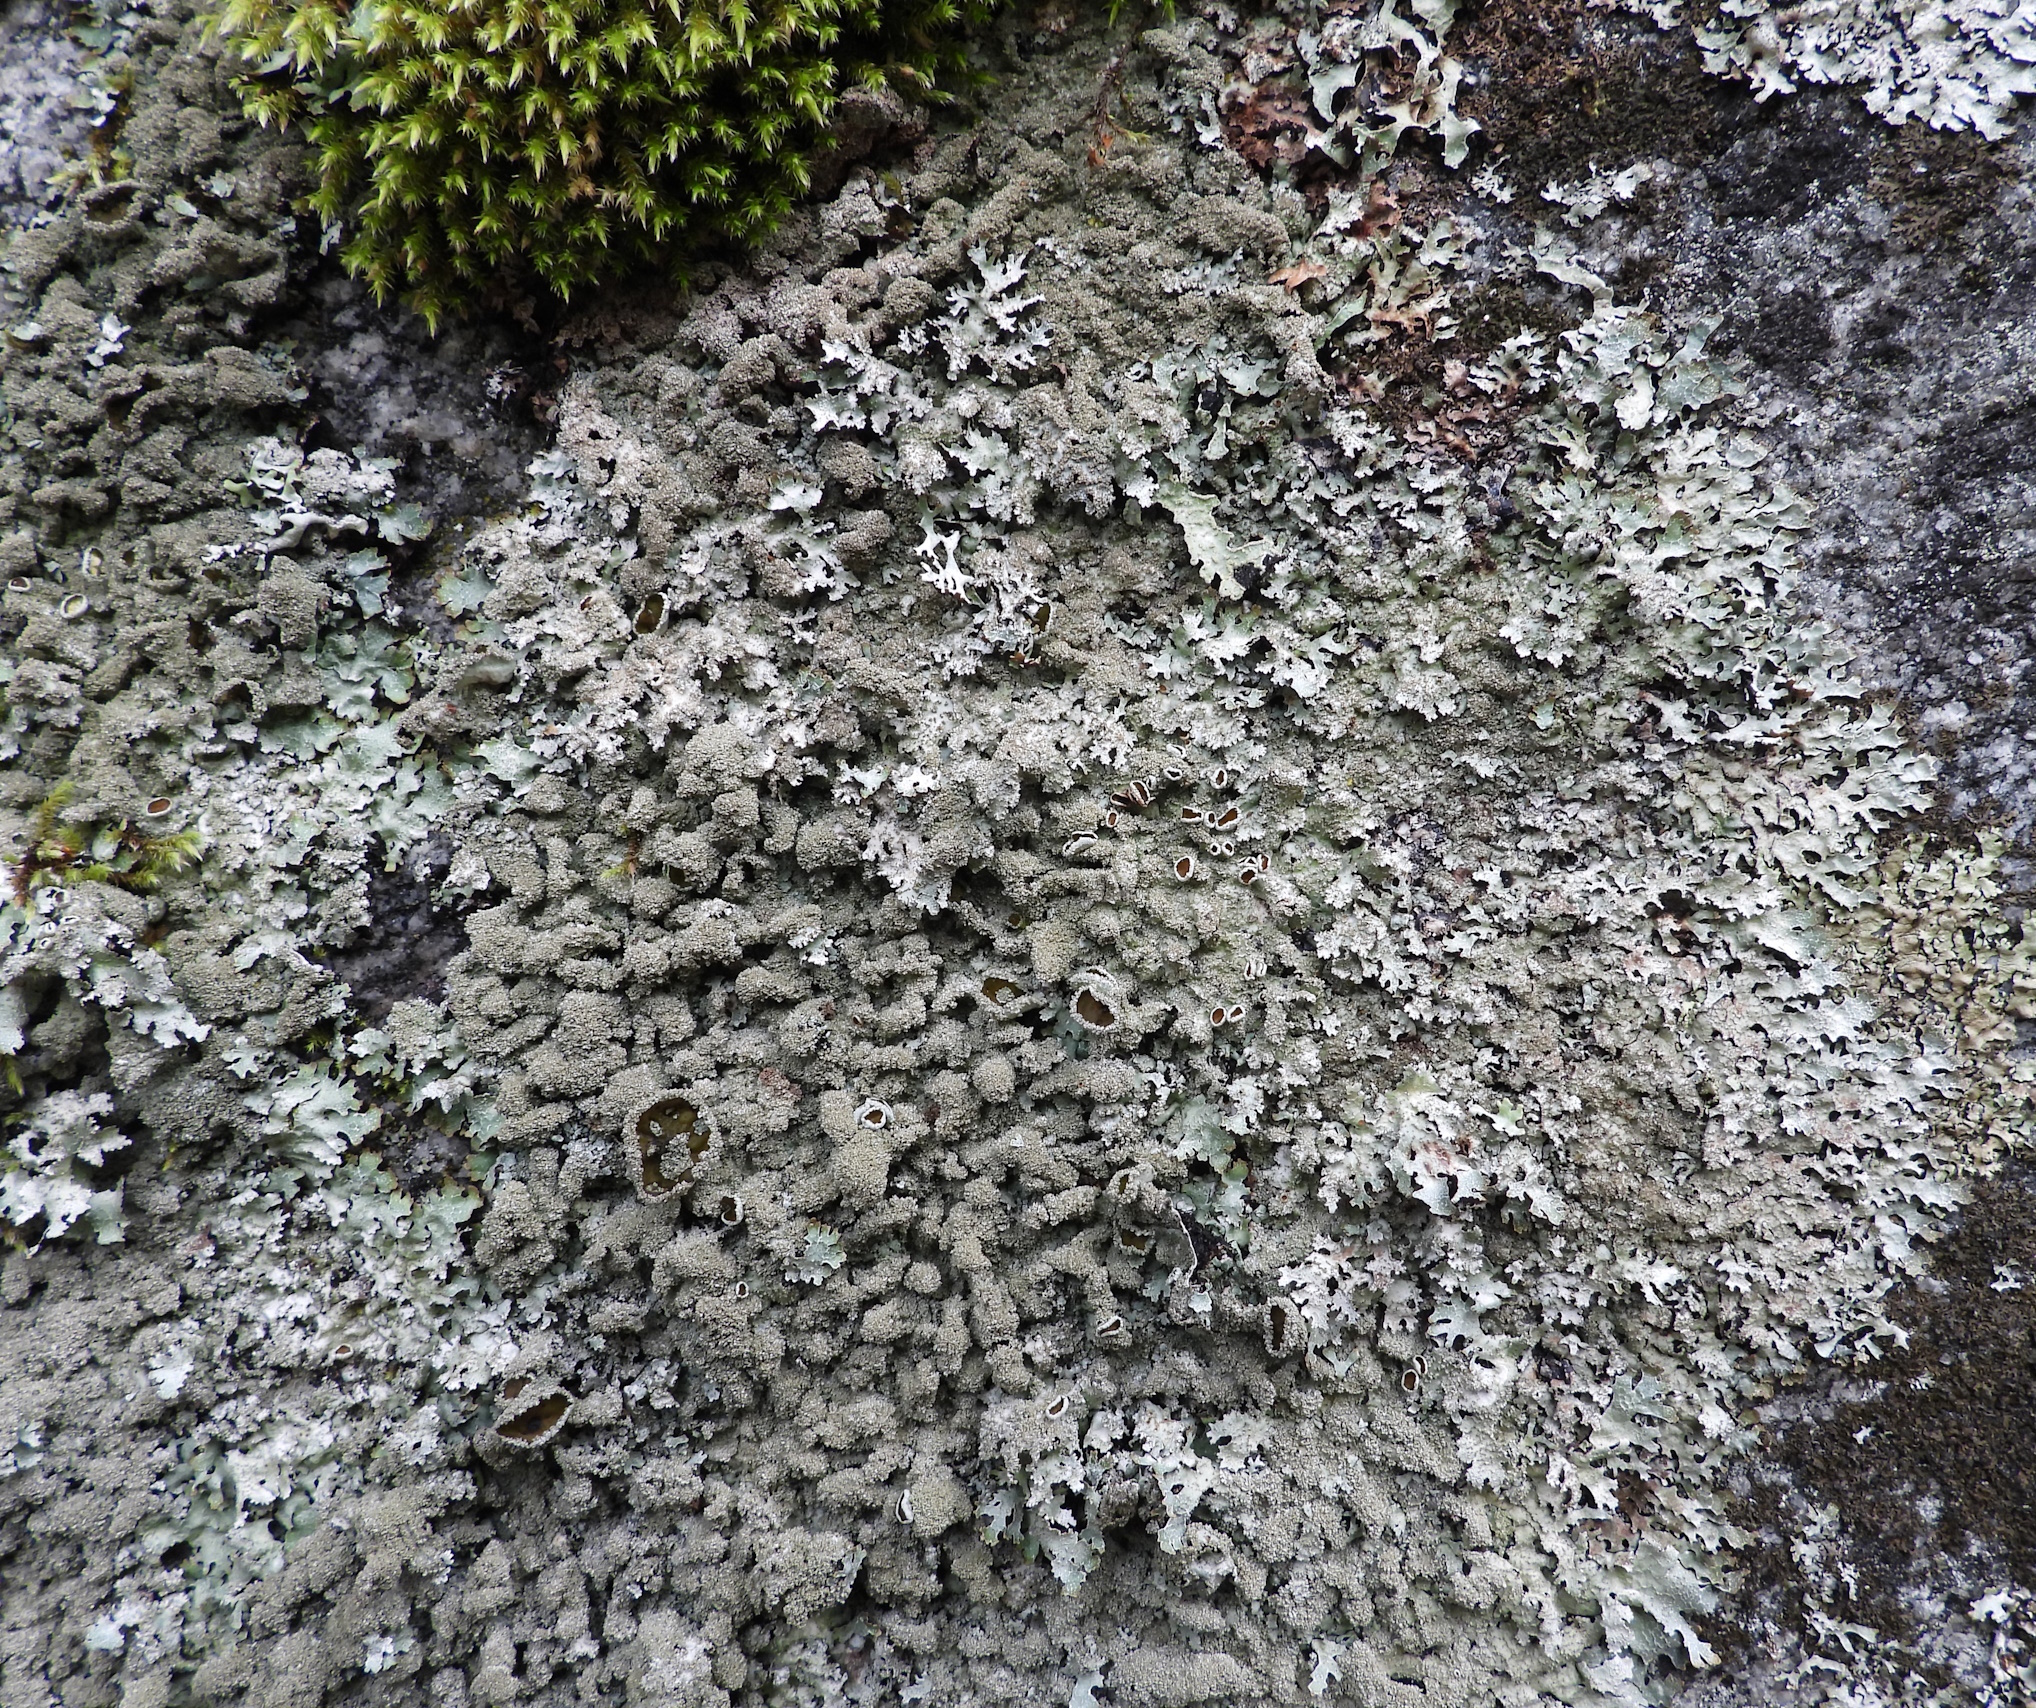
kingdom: Fungi
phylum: Ascomycota
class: Lecanoromycetes
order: Lecanorales
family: Parmeliaceae
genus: Parmelia
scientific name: Parmelia saxatilis
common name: Salted shield lichen
